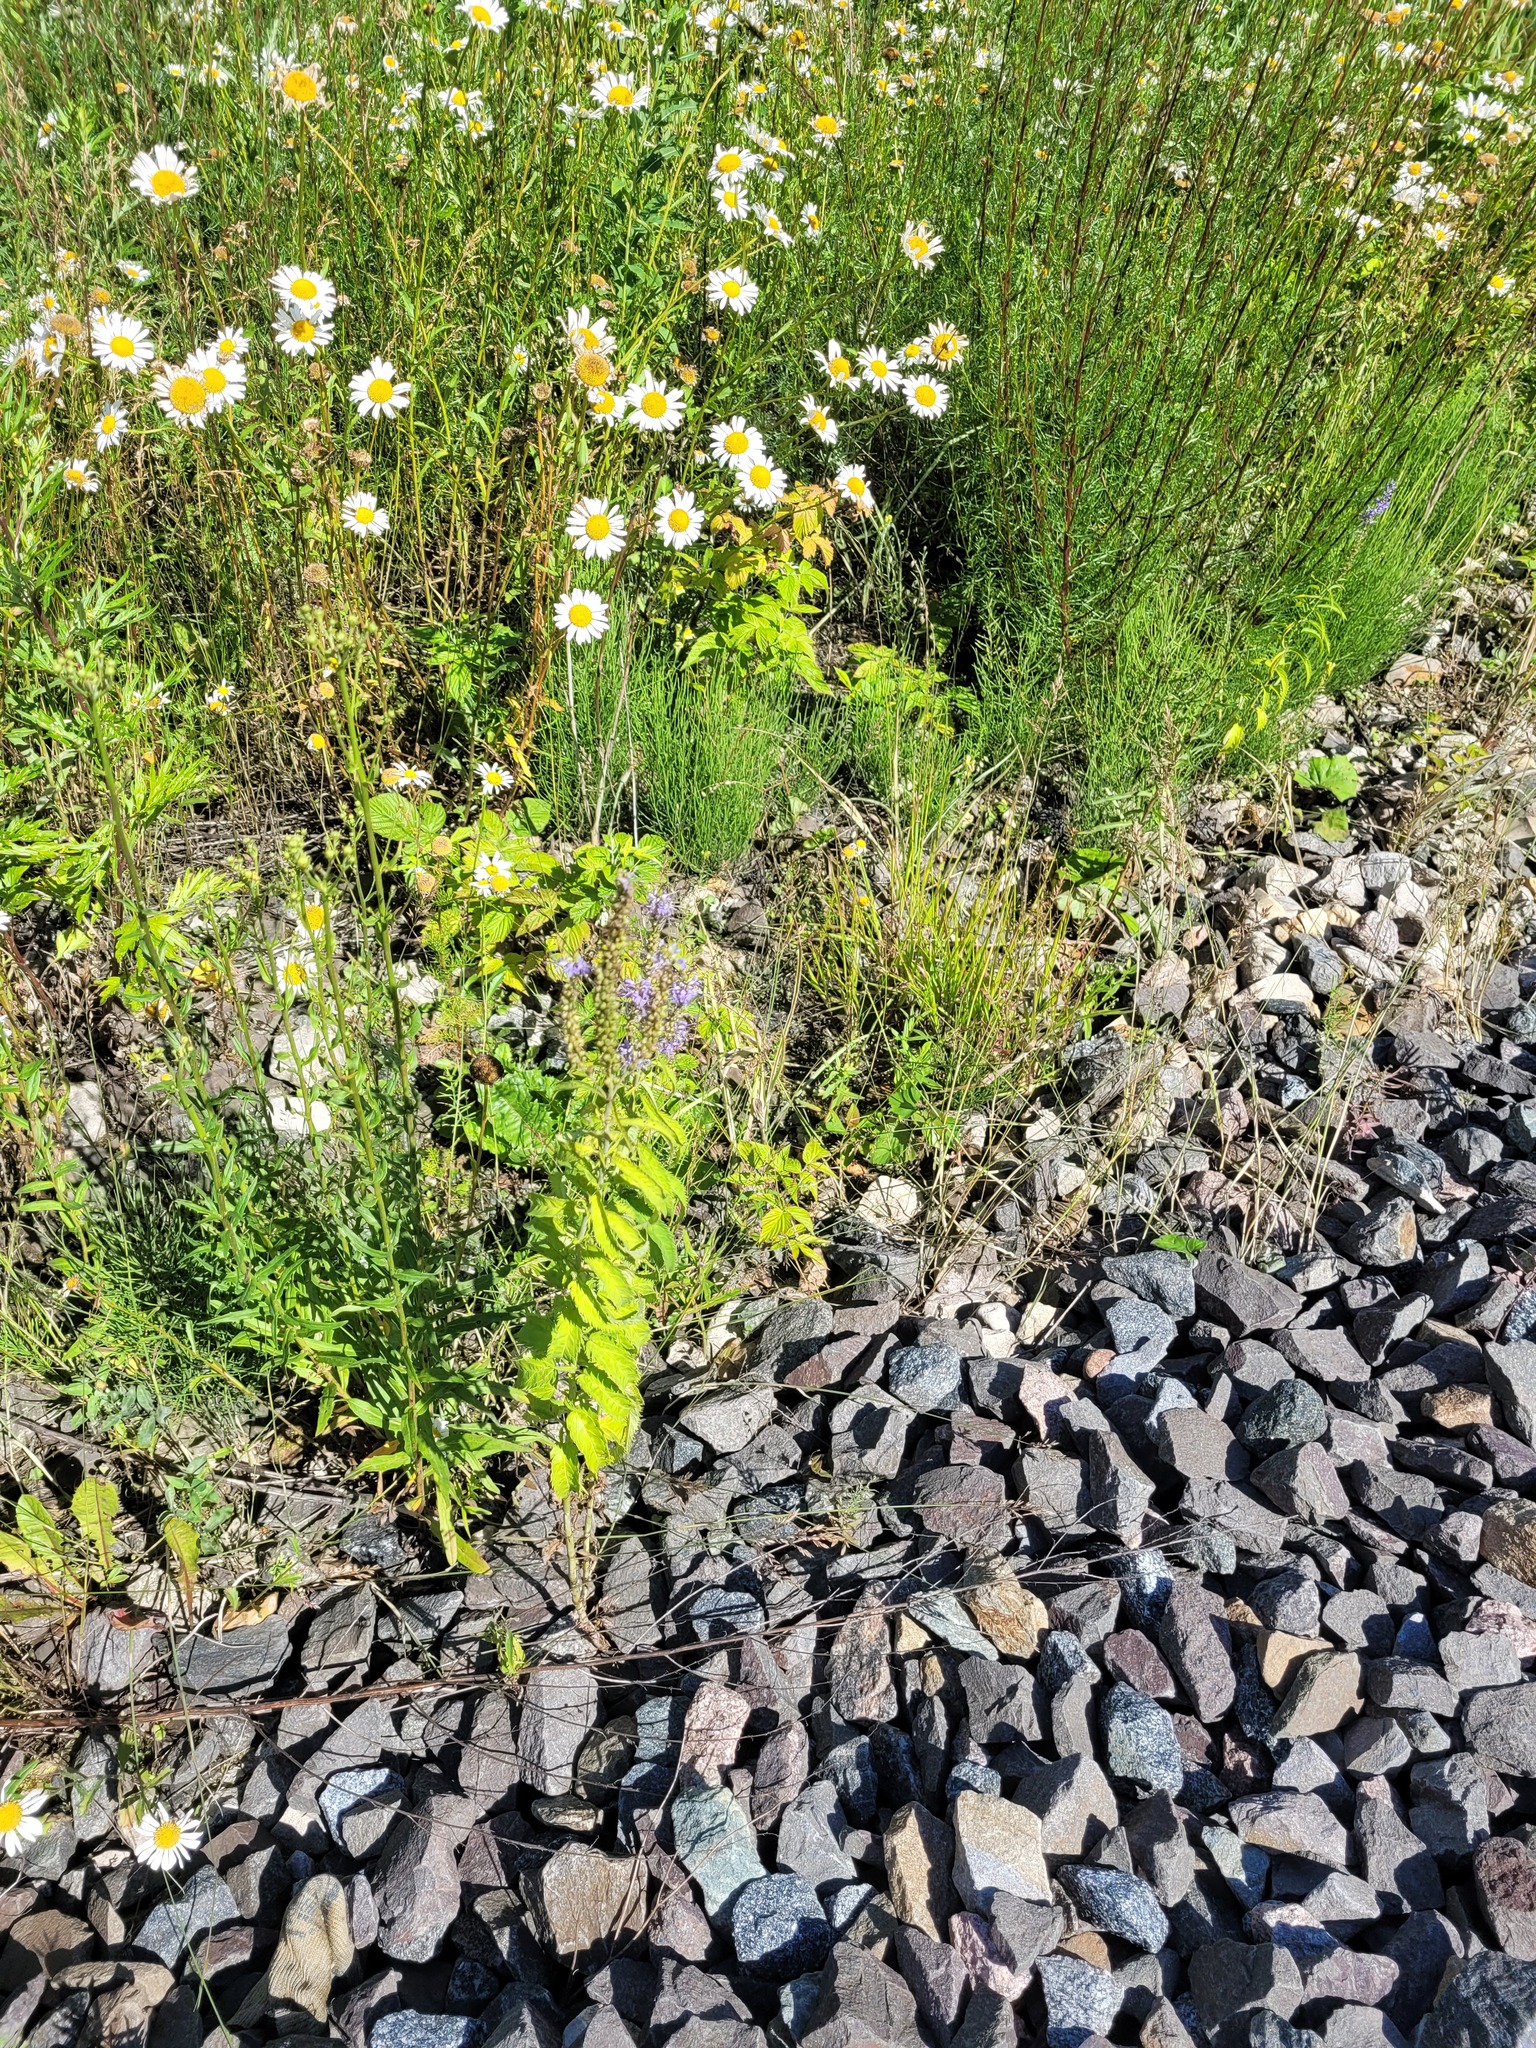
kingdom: Plantae
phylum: Tracheophyta
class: Magnoliopsida
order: Lamiales
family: Plantaginaceae
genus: Veronica
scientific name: Veronica longifolia
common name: Garden speedwell
